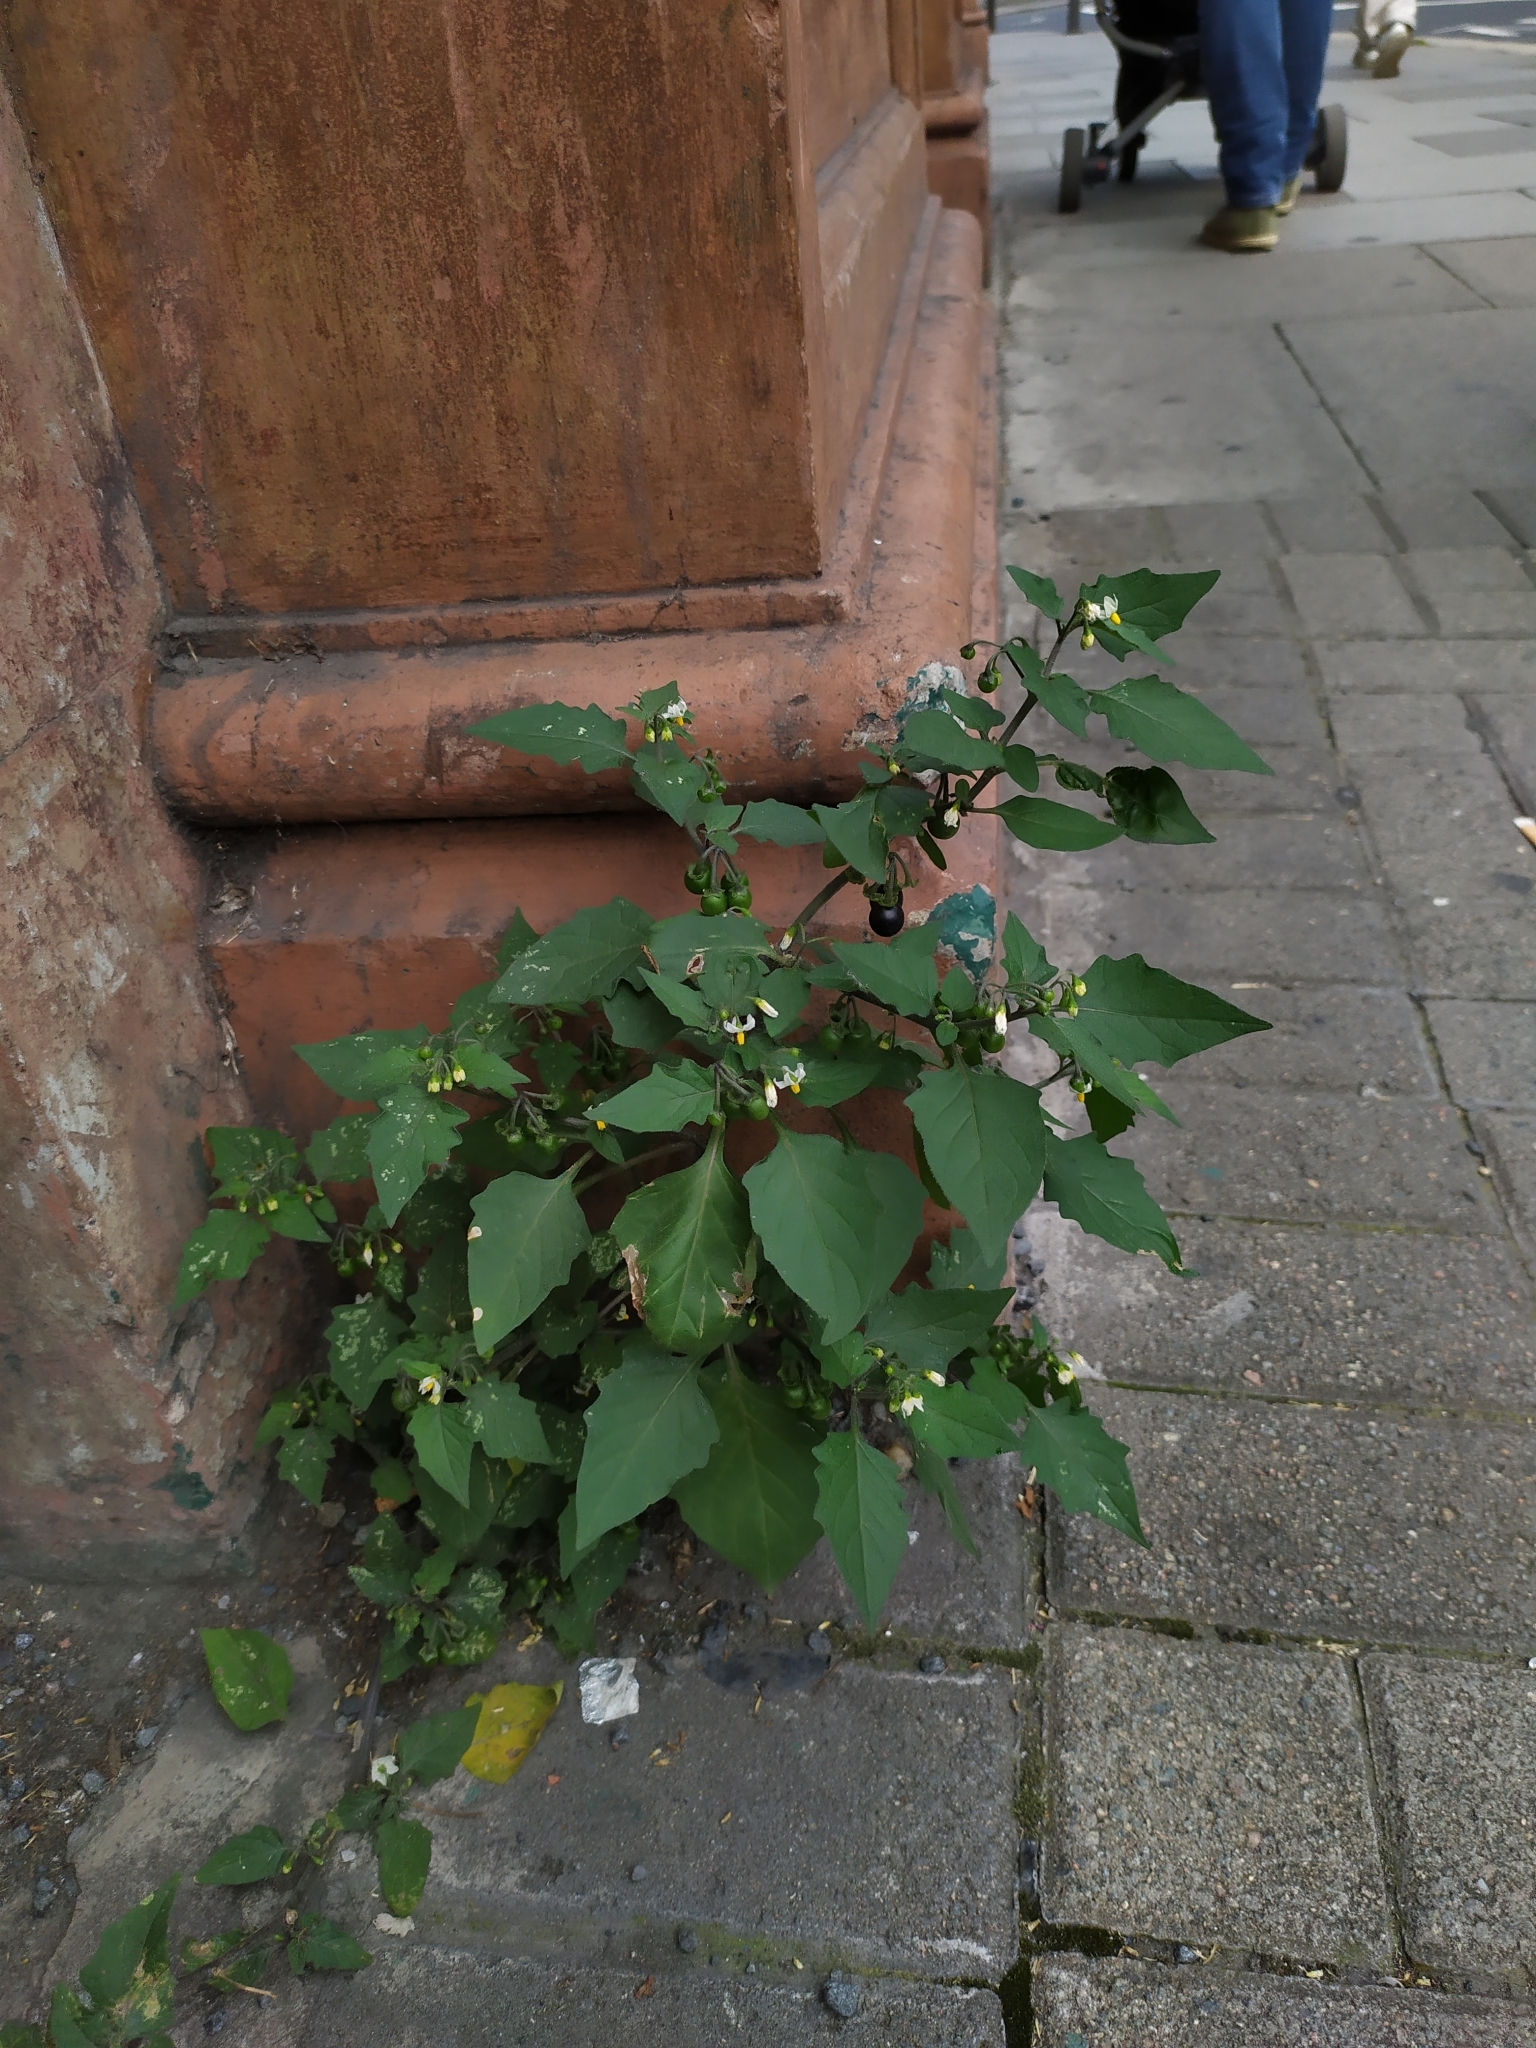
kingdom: Plantae
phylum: Tracheophyta
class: Magnoliopsida
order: Solanales
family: Solanaceae
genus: Solanum
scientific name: Solanum nigrum
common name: Black nightshade
